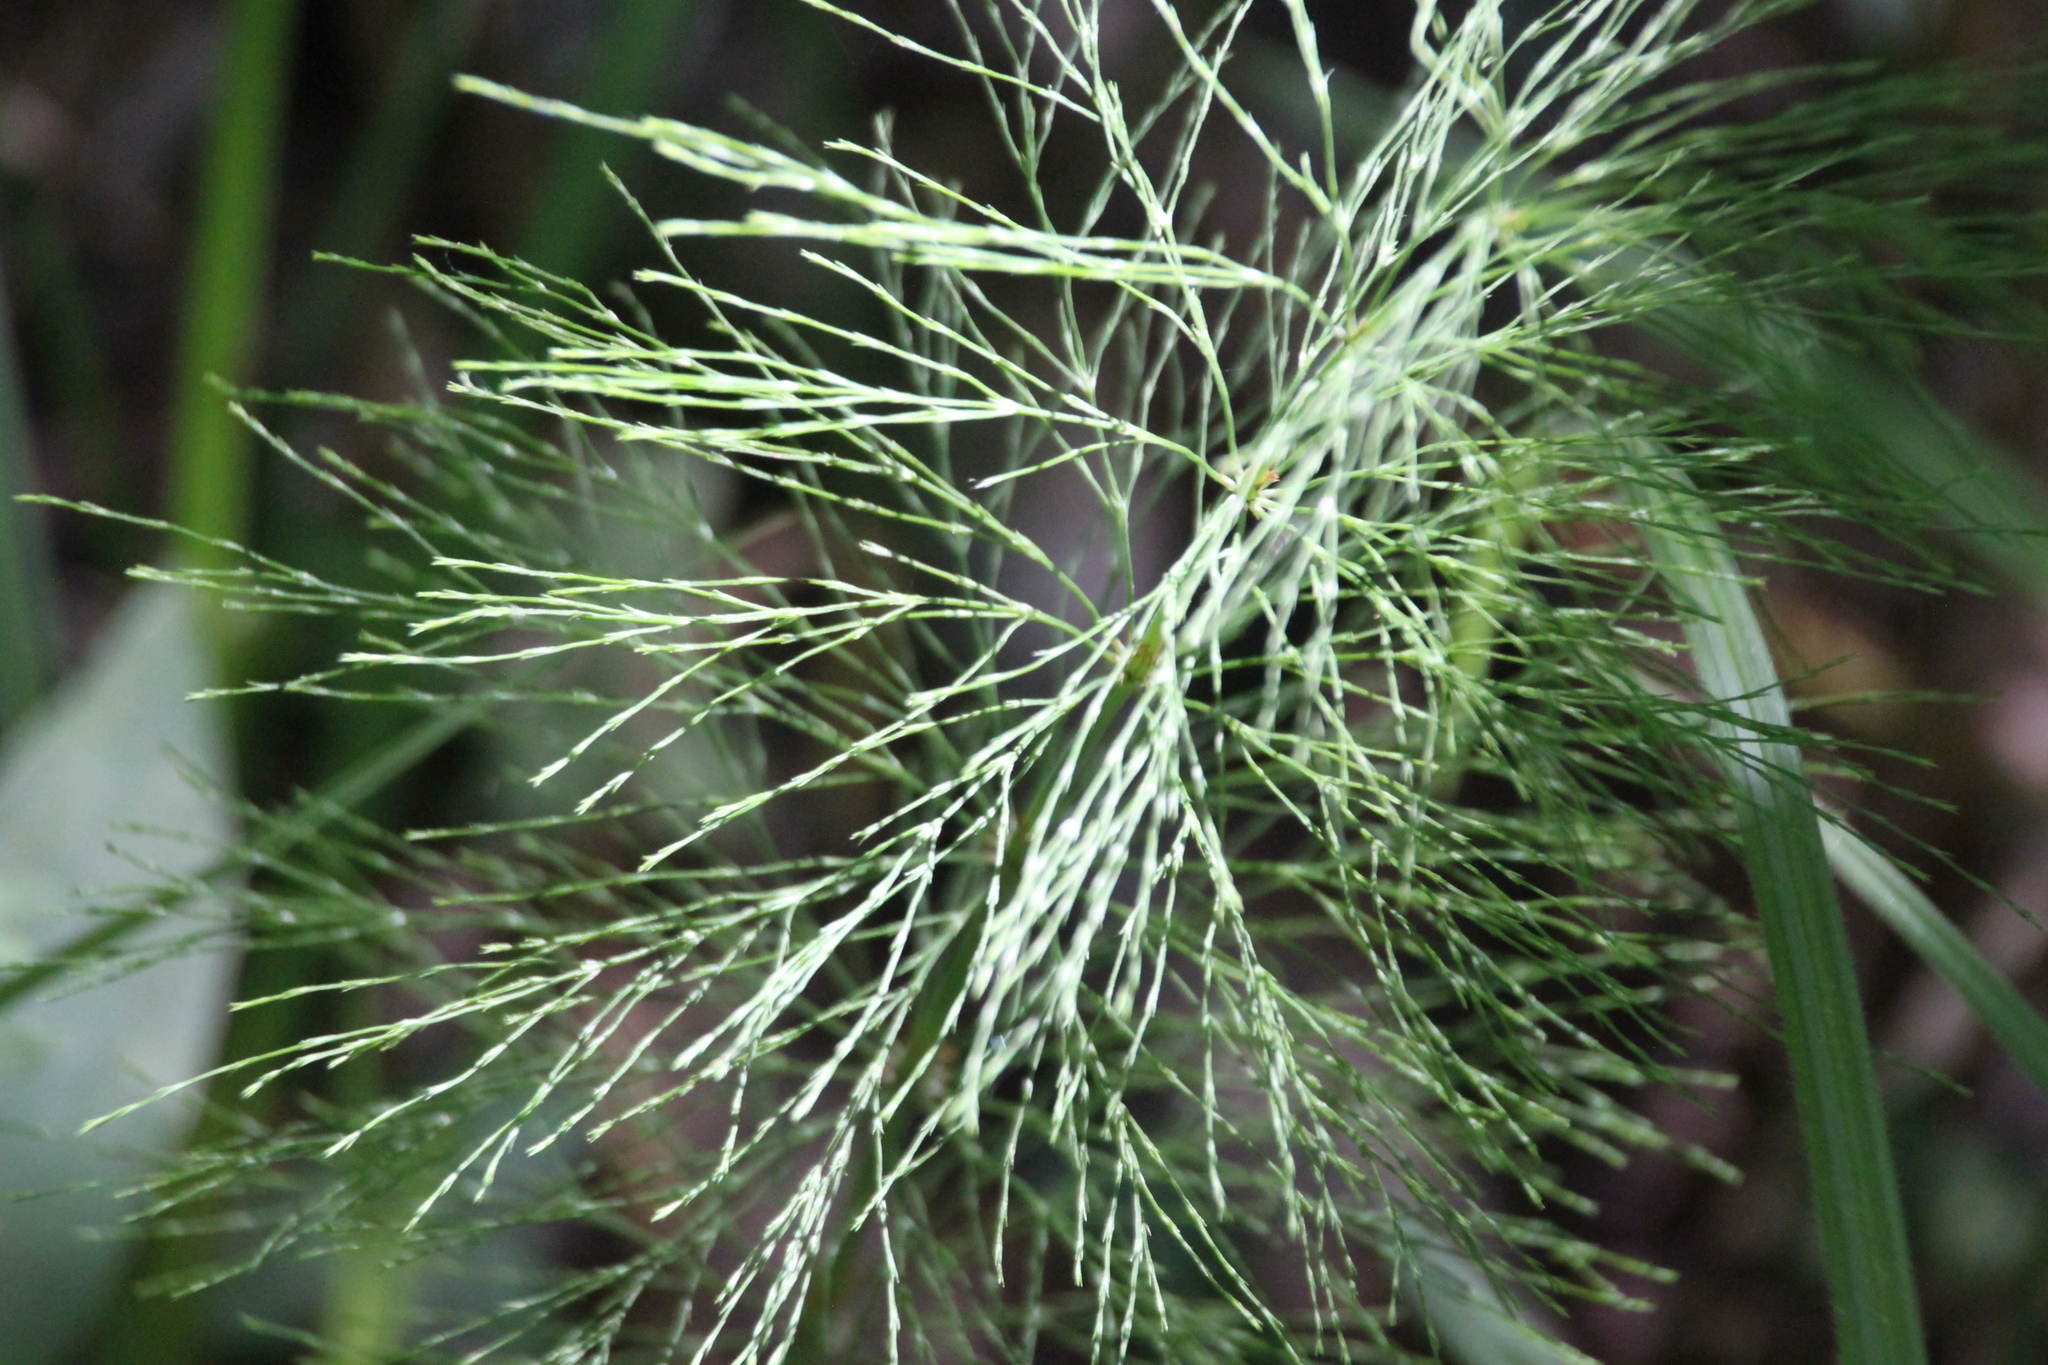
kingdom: Plantae
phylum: Tracheophyta
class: Polypodiopsida
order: Equisetales
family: Equisetaceae
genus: Equisetum
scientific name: Equisetum sylvaticum
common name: Wood horsetail
